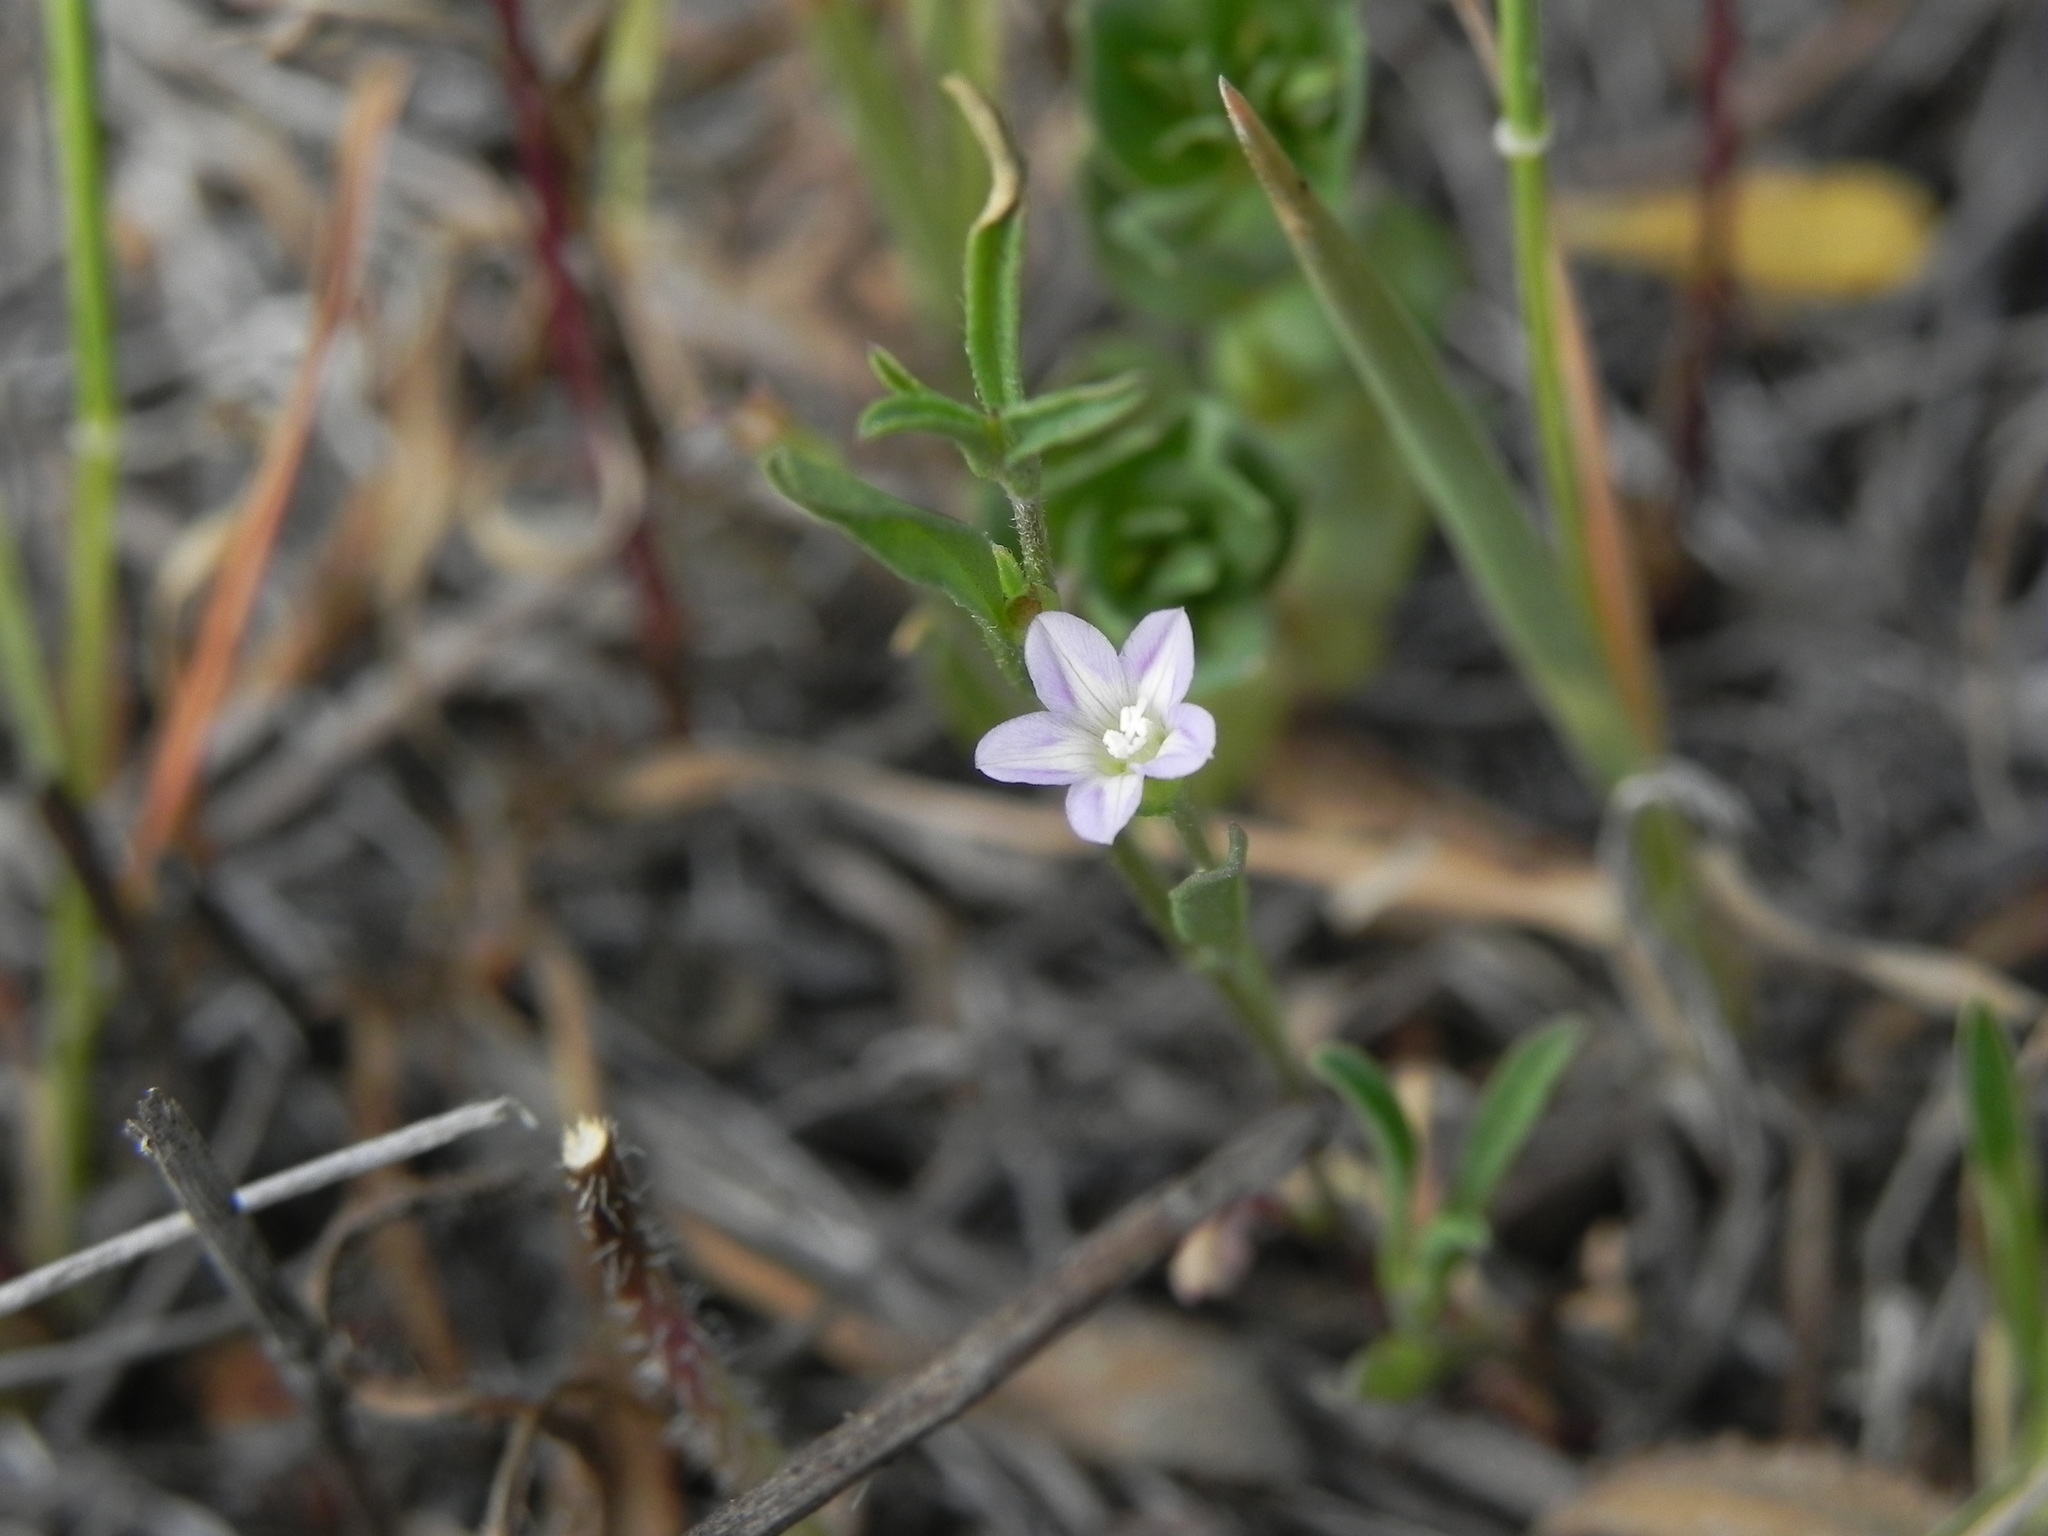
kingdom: Plantae
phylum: Tracheophyta
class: Magnoliopsida
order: Solanales
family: Convolvulaceae
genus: Convolvulus
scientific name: Convolvulus simulans
